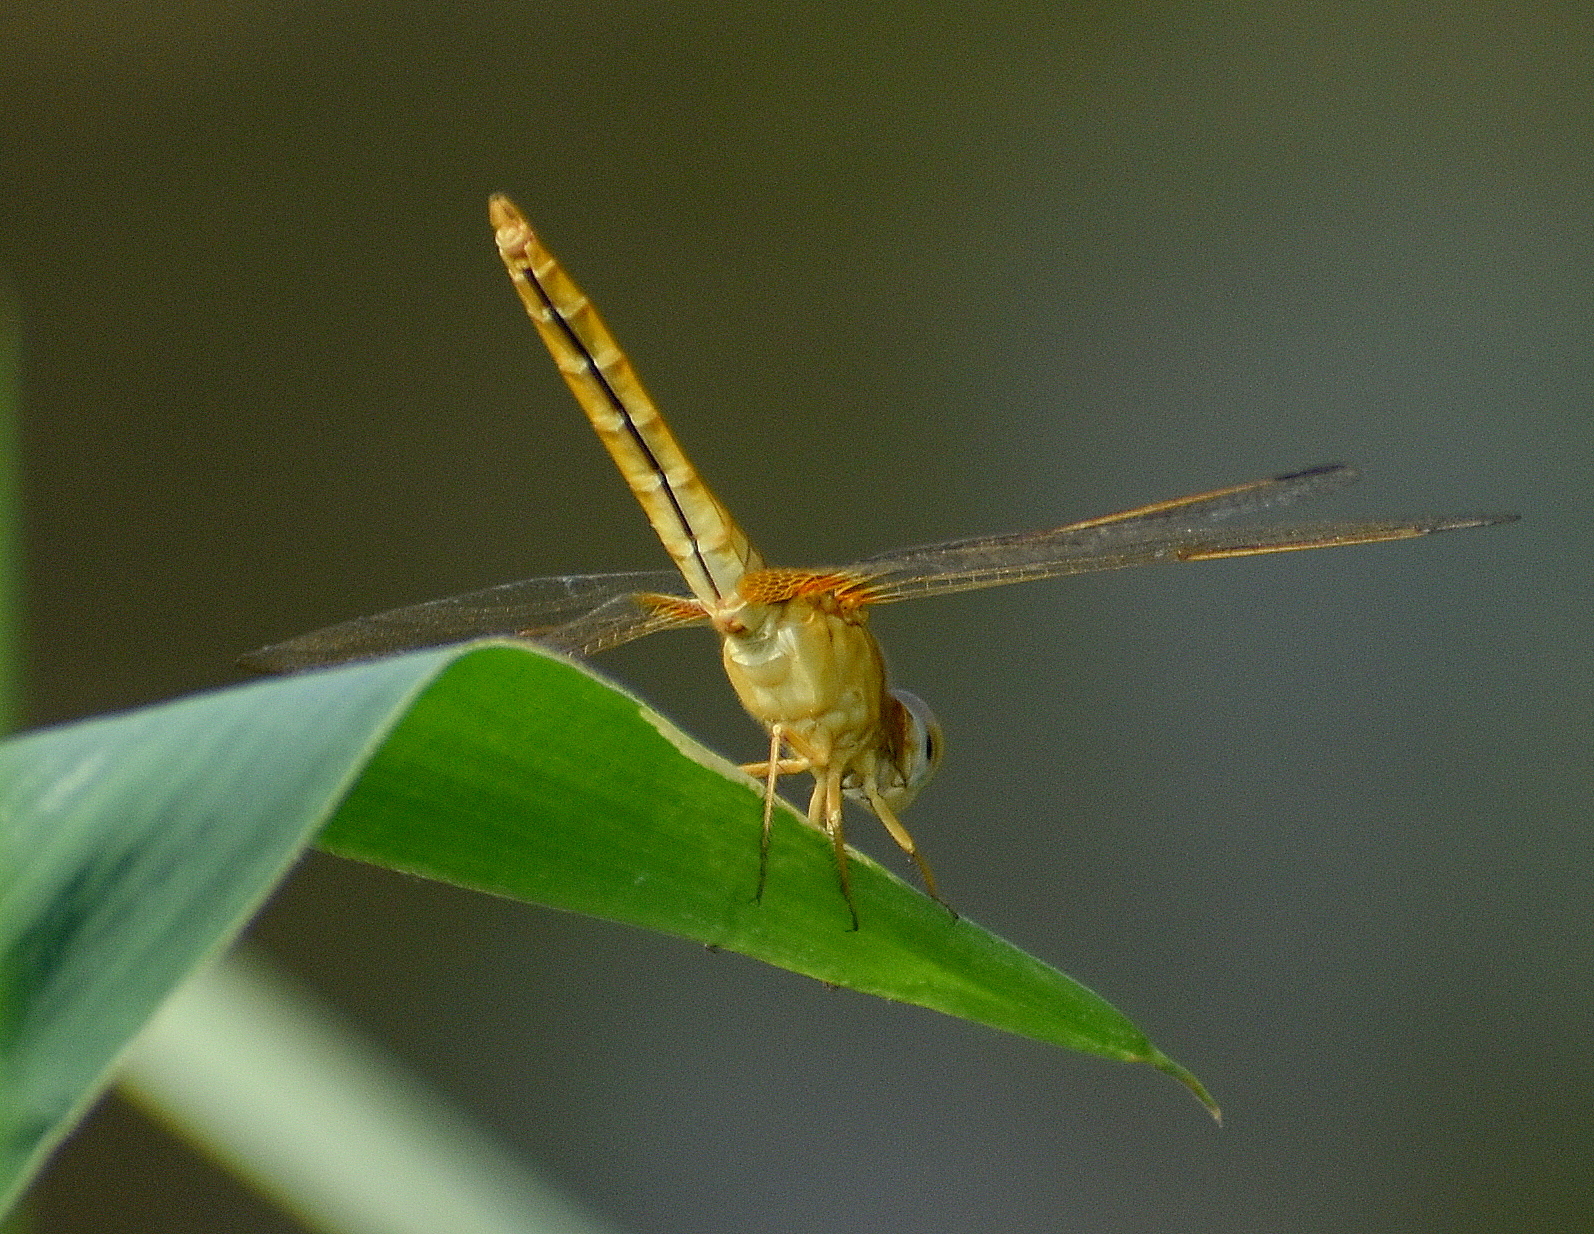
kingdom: Animalia
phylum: Arthropoda
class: Insecta
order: Odonata
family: Libellulidae
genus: Crocothemis
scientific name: Crocothemis servilia
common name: Scarlet skimmer
